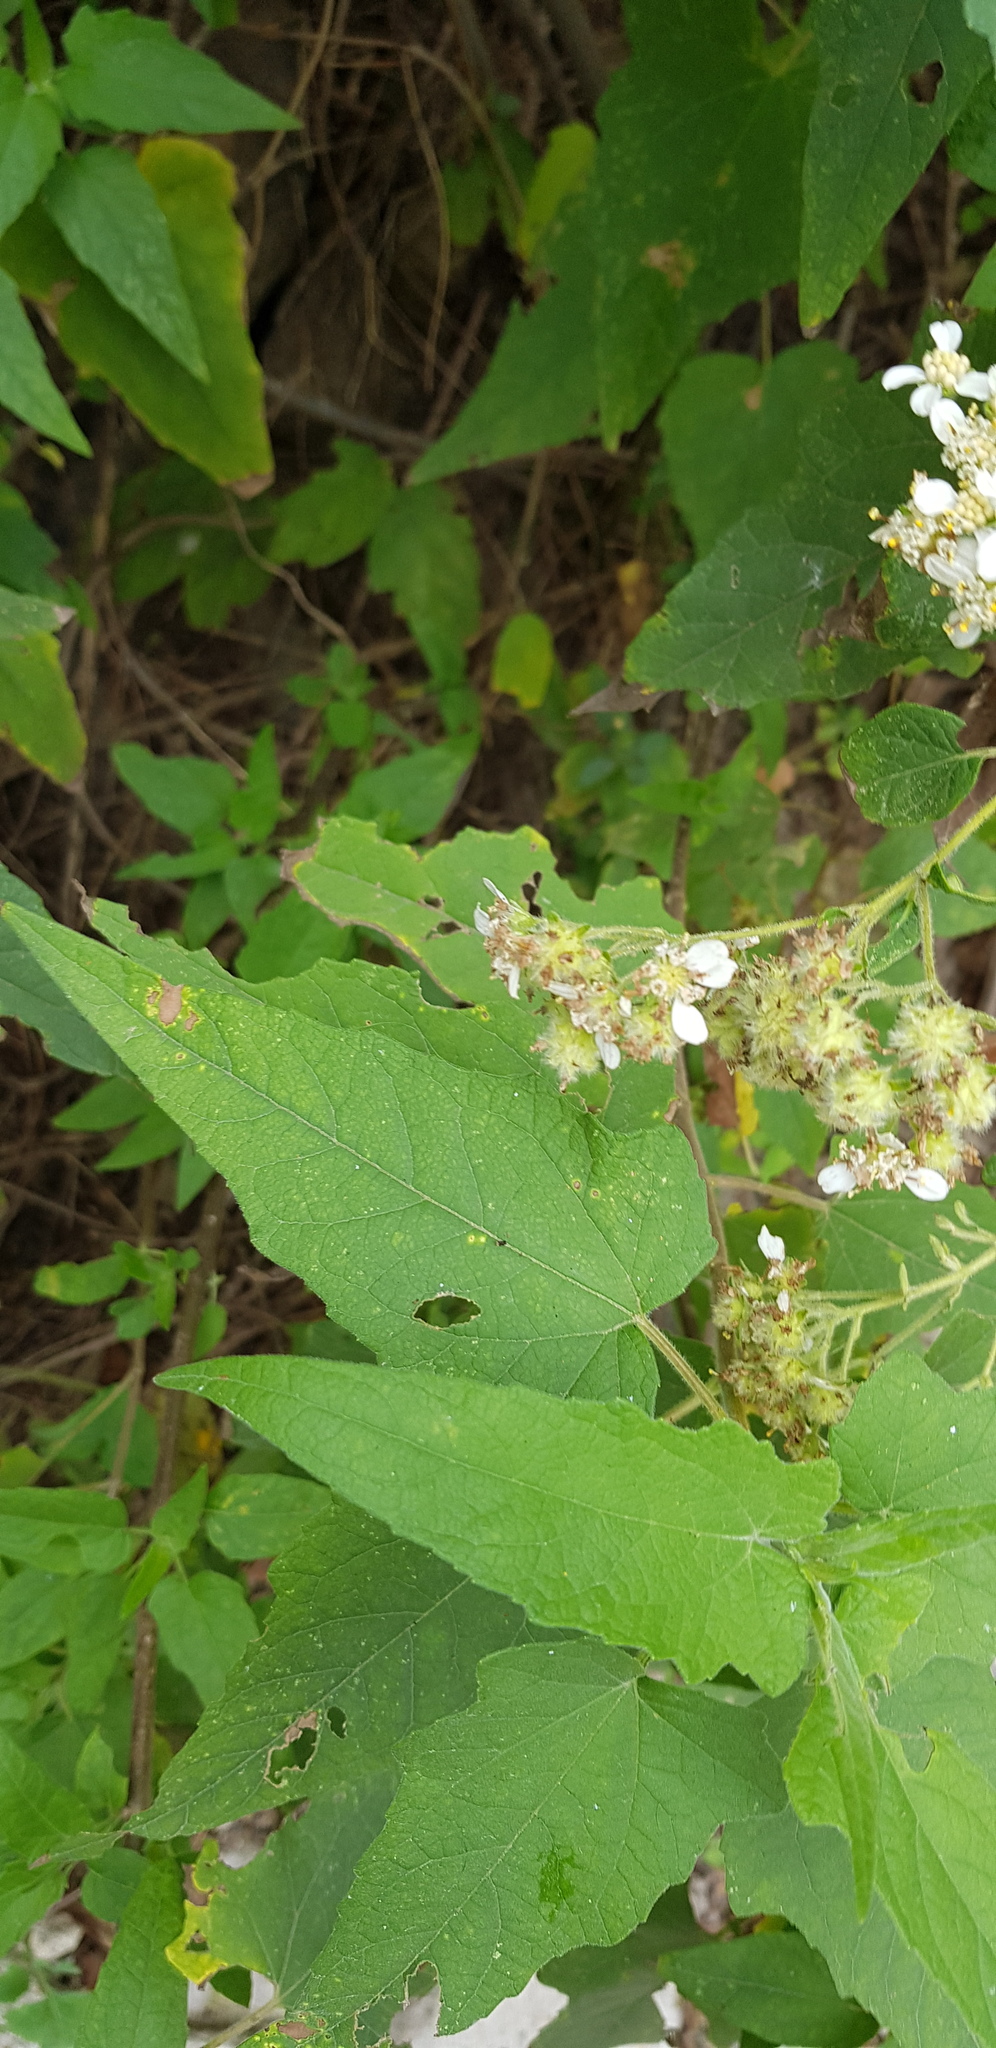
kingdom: Plantae
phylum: Tracheophyta
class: Magnoliopsida
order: Asterales
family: Asteraceae
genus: Montanoa
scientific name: Montanoa tomentosa
